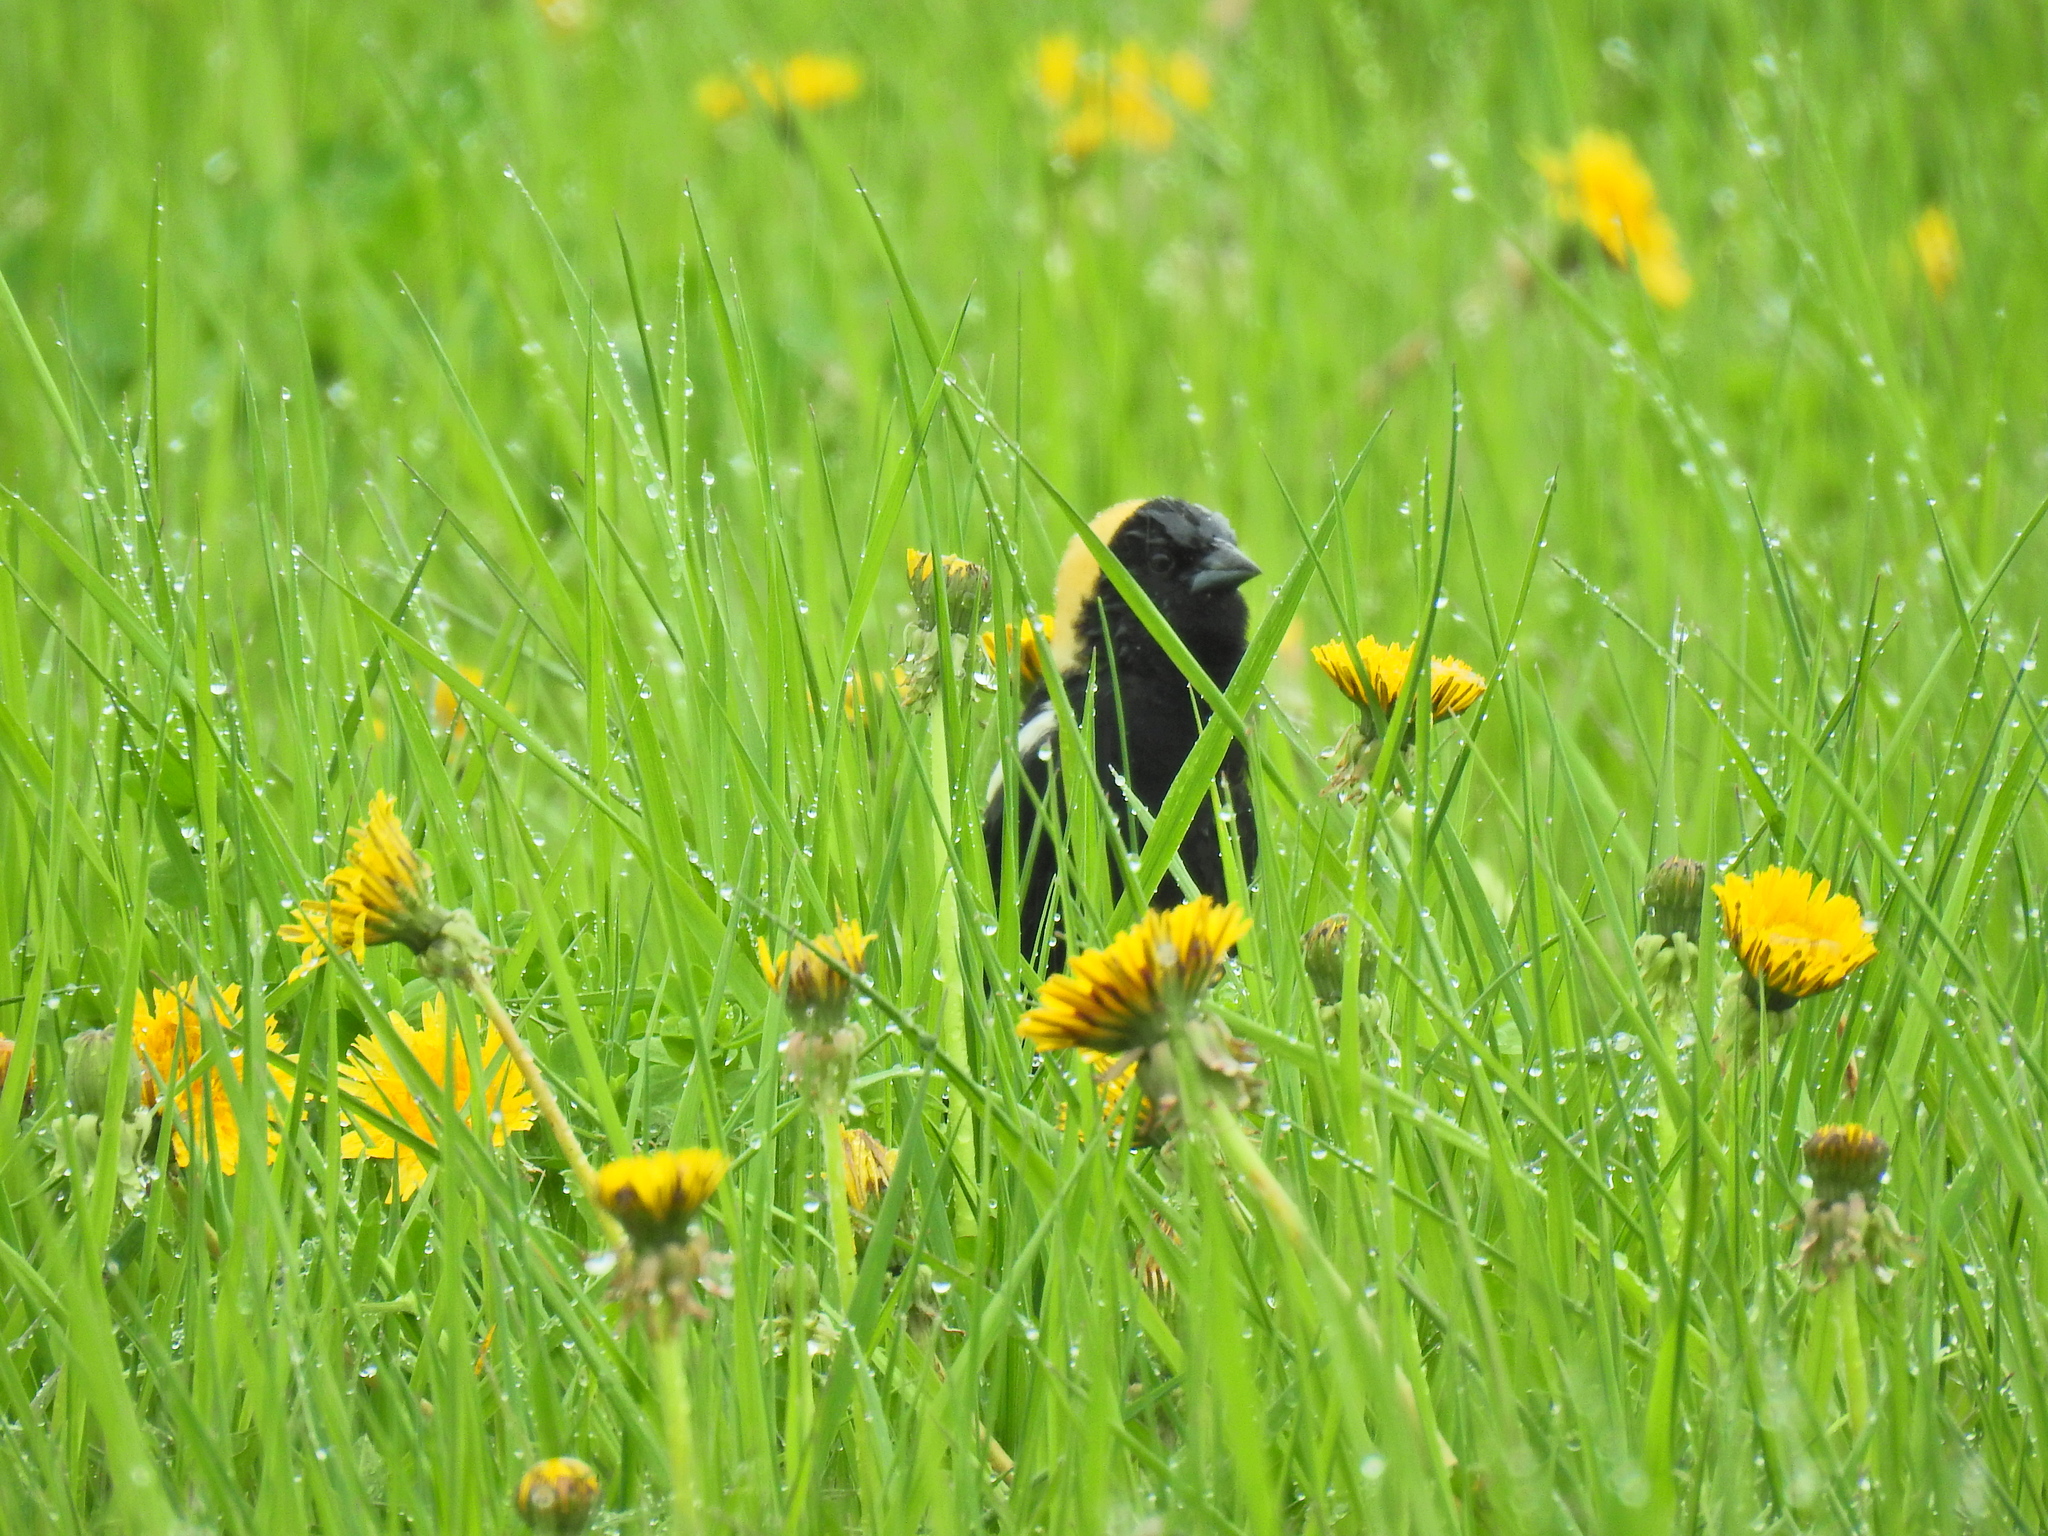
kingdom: Animalia
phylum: Chordata
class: Aves
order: Passeriformes
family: Icteridae
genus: Dolichonyx
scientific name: Dolichonyx oryzivorus
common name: Bobolink
